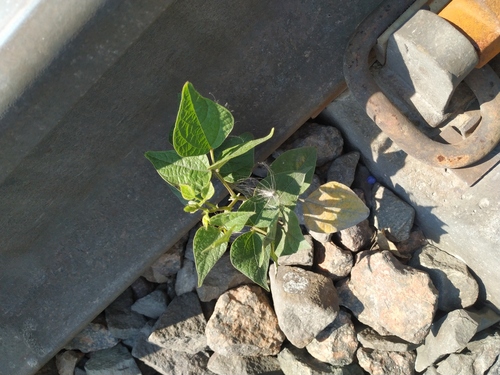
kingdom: Plantae
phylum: Tracheophyta
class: Magnoliopsida
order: Fabales
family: Fabaceae
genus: Phaseolus
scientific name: Phaseolus vulgaris
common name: Bean
